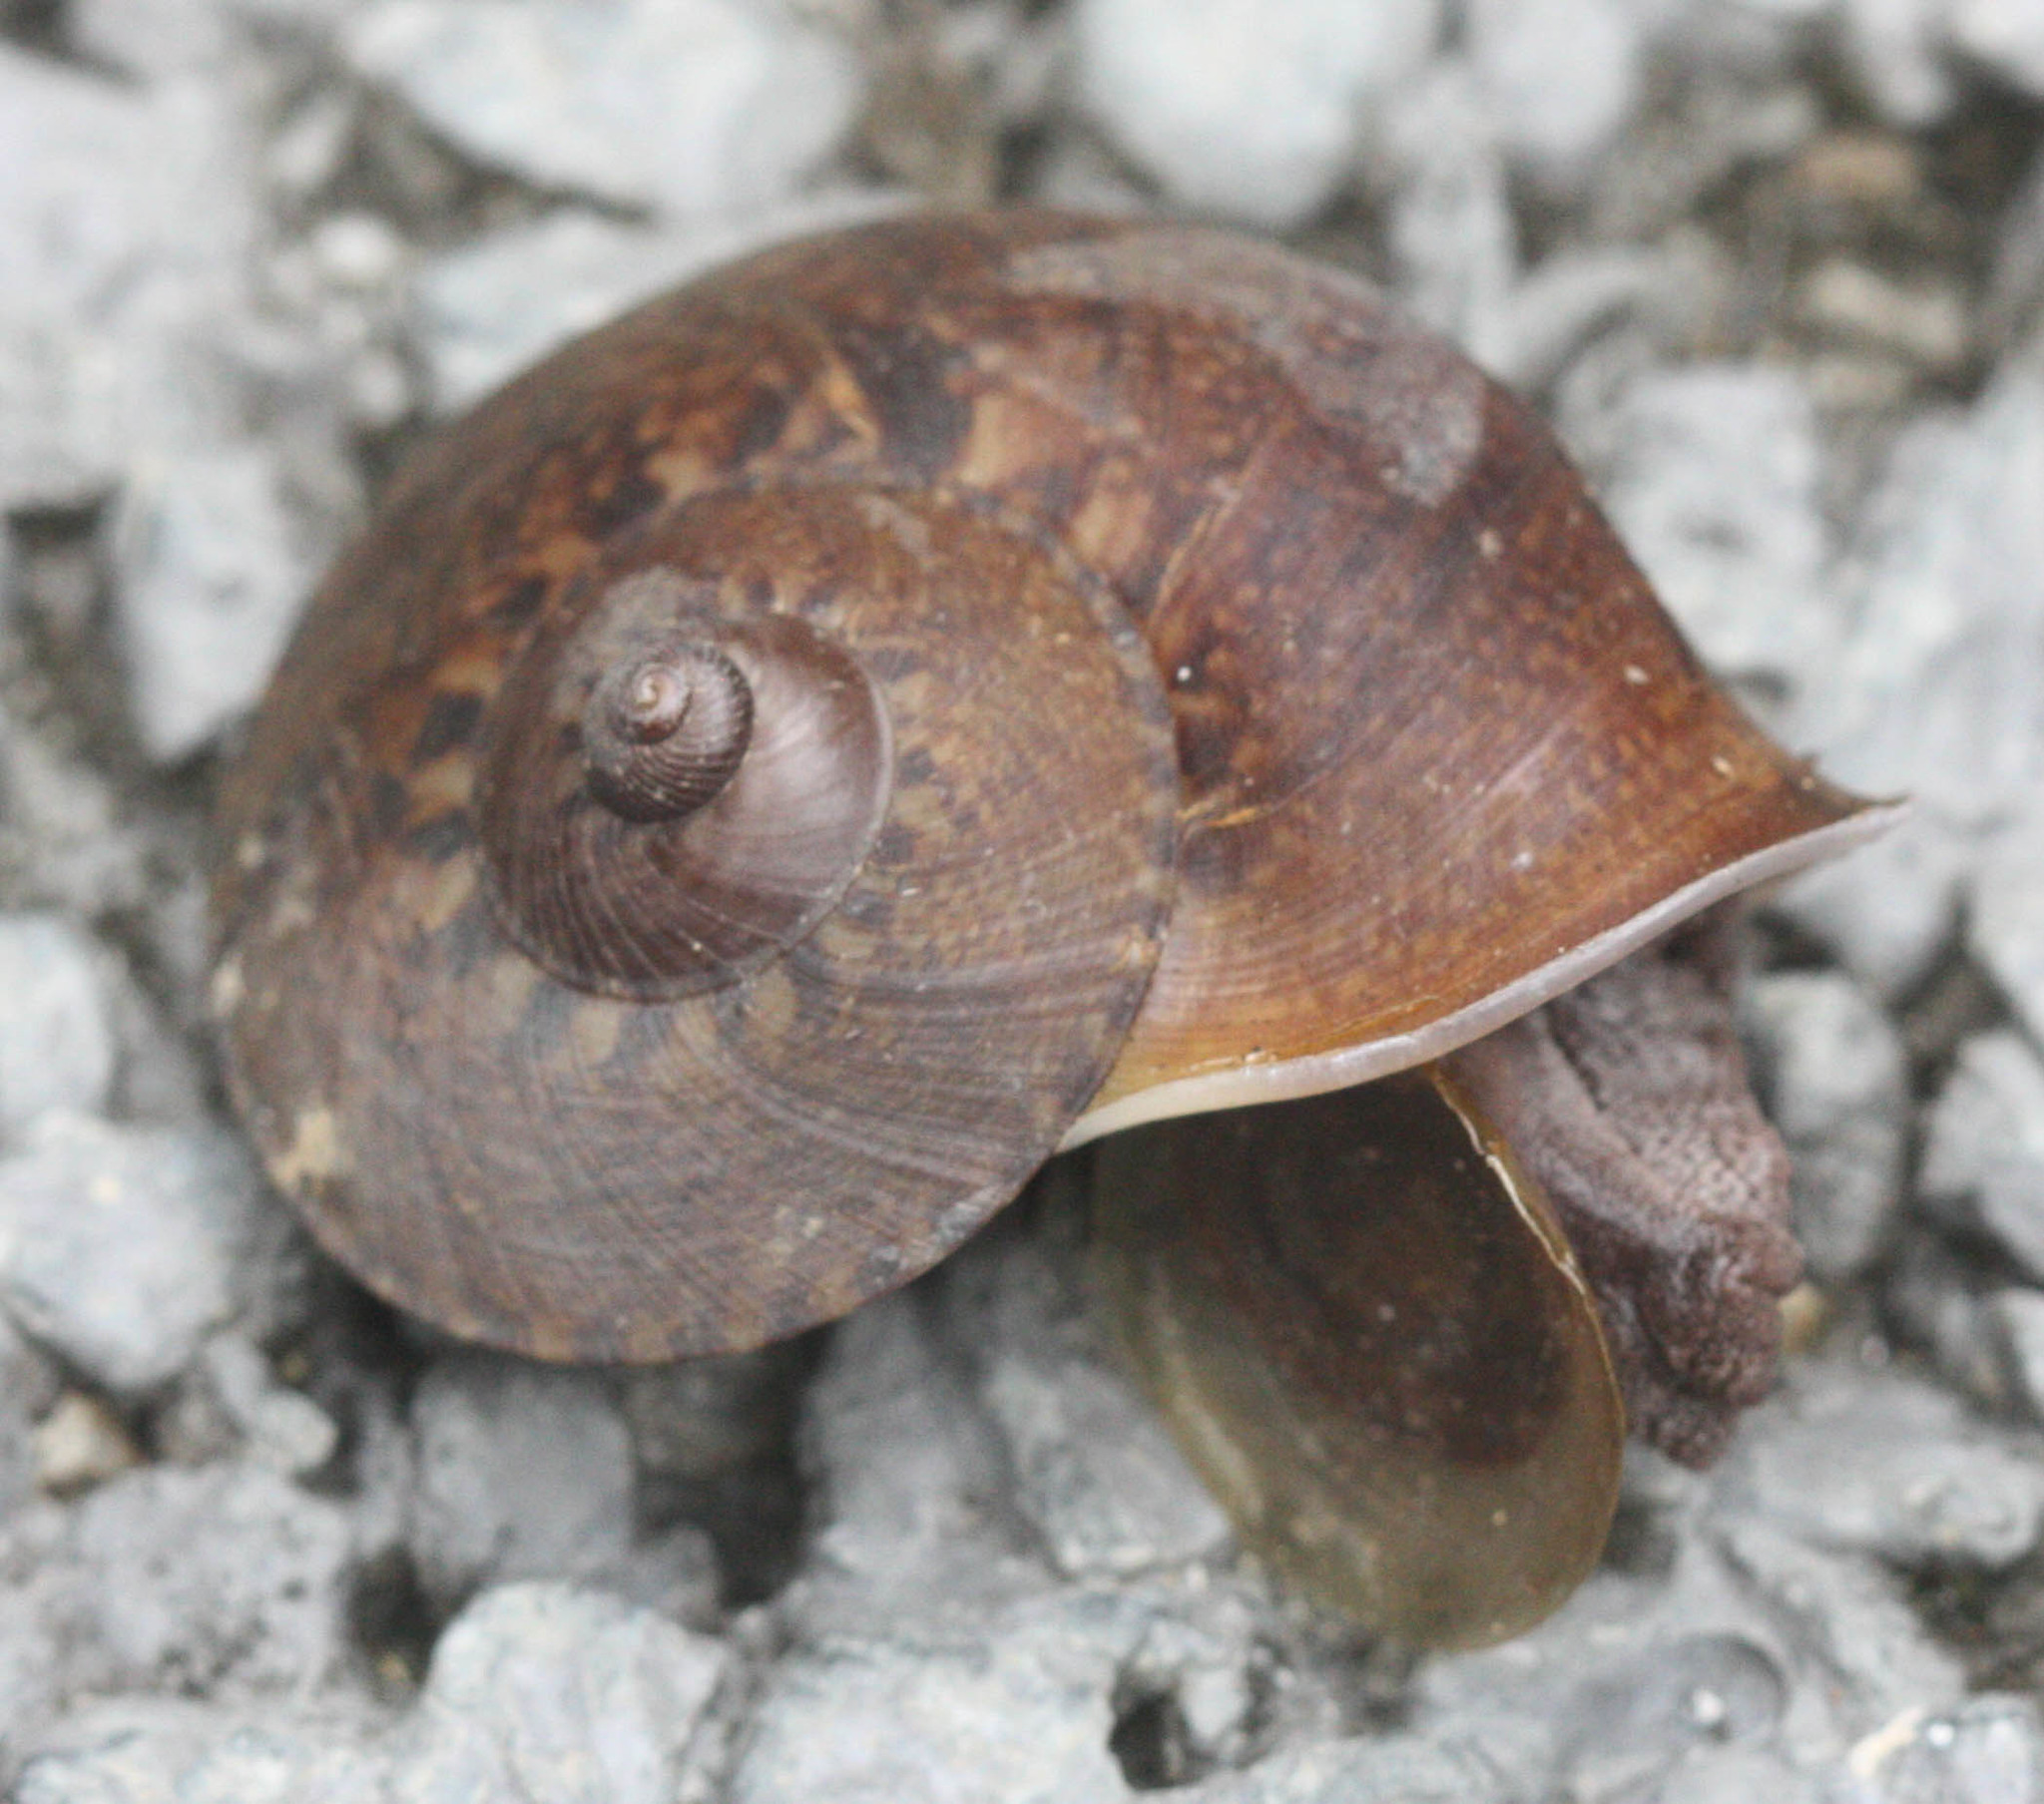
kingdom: Animalia
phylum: Mollusca
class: Gastropoda
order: Architaenioglossa
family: Cyclophoridae
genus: Cyclophorus
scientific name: Cyclophorus perdix
